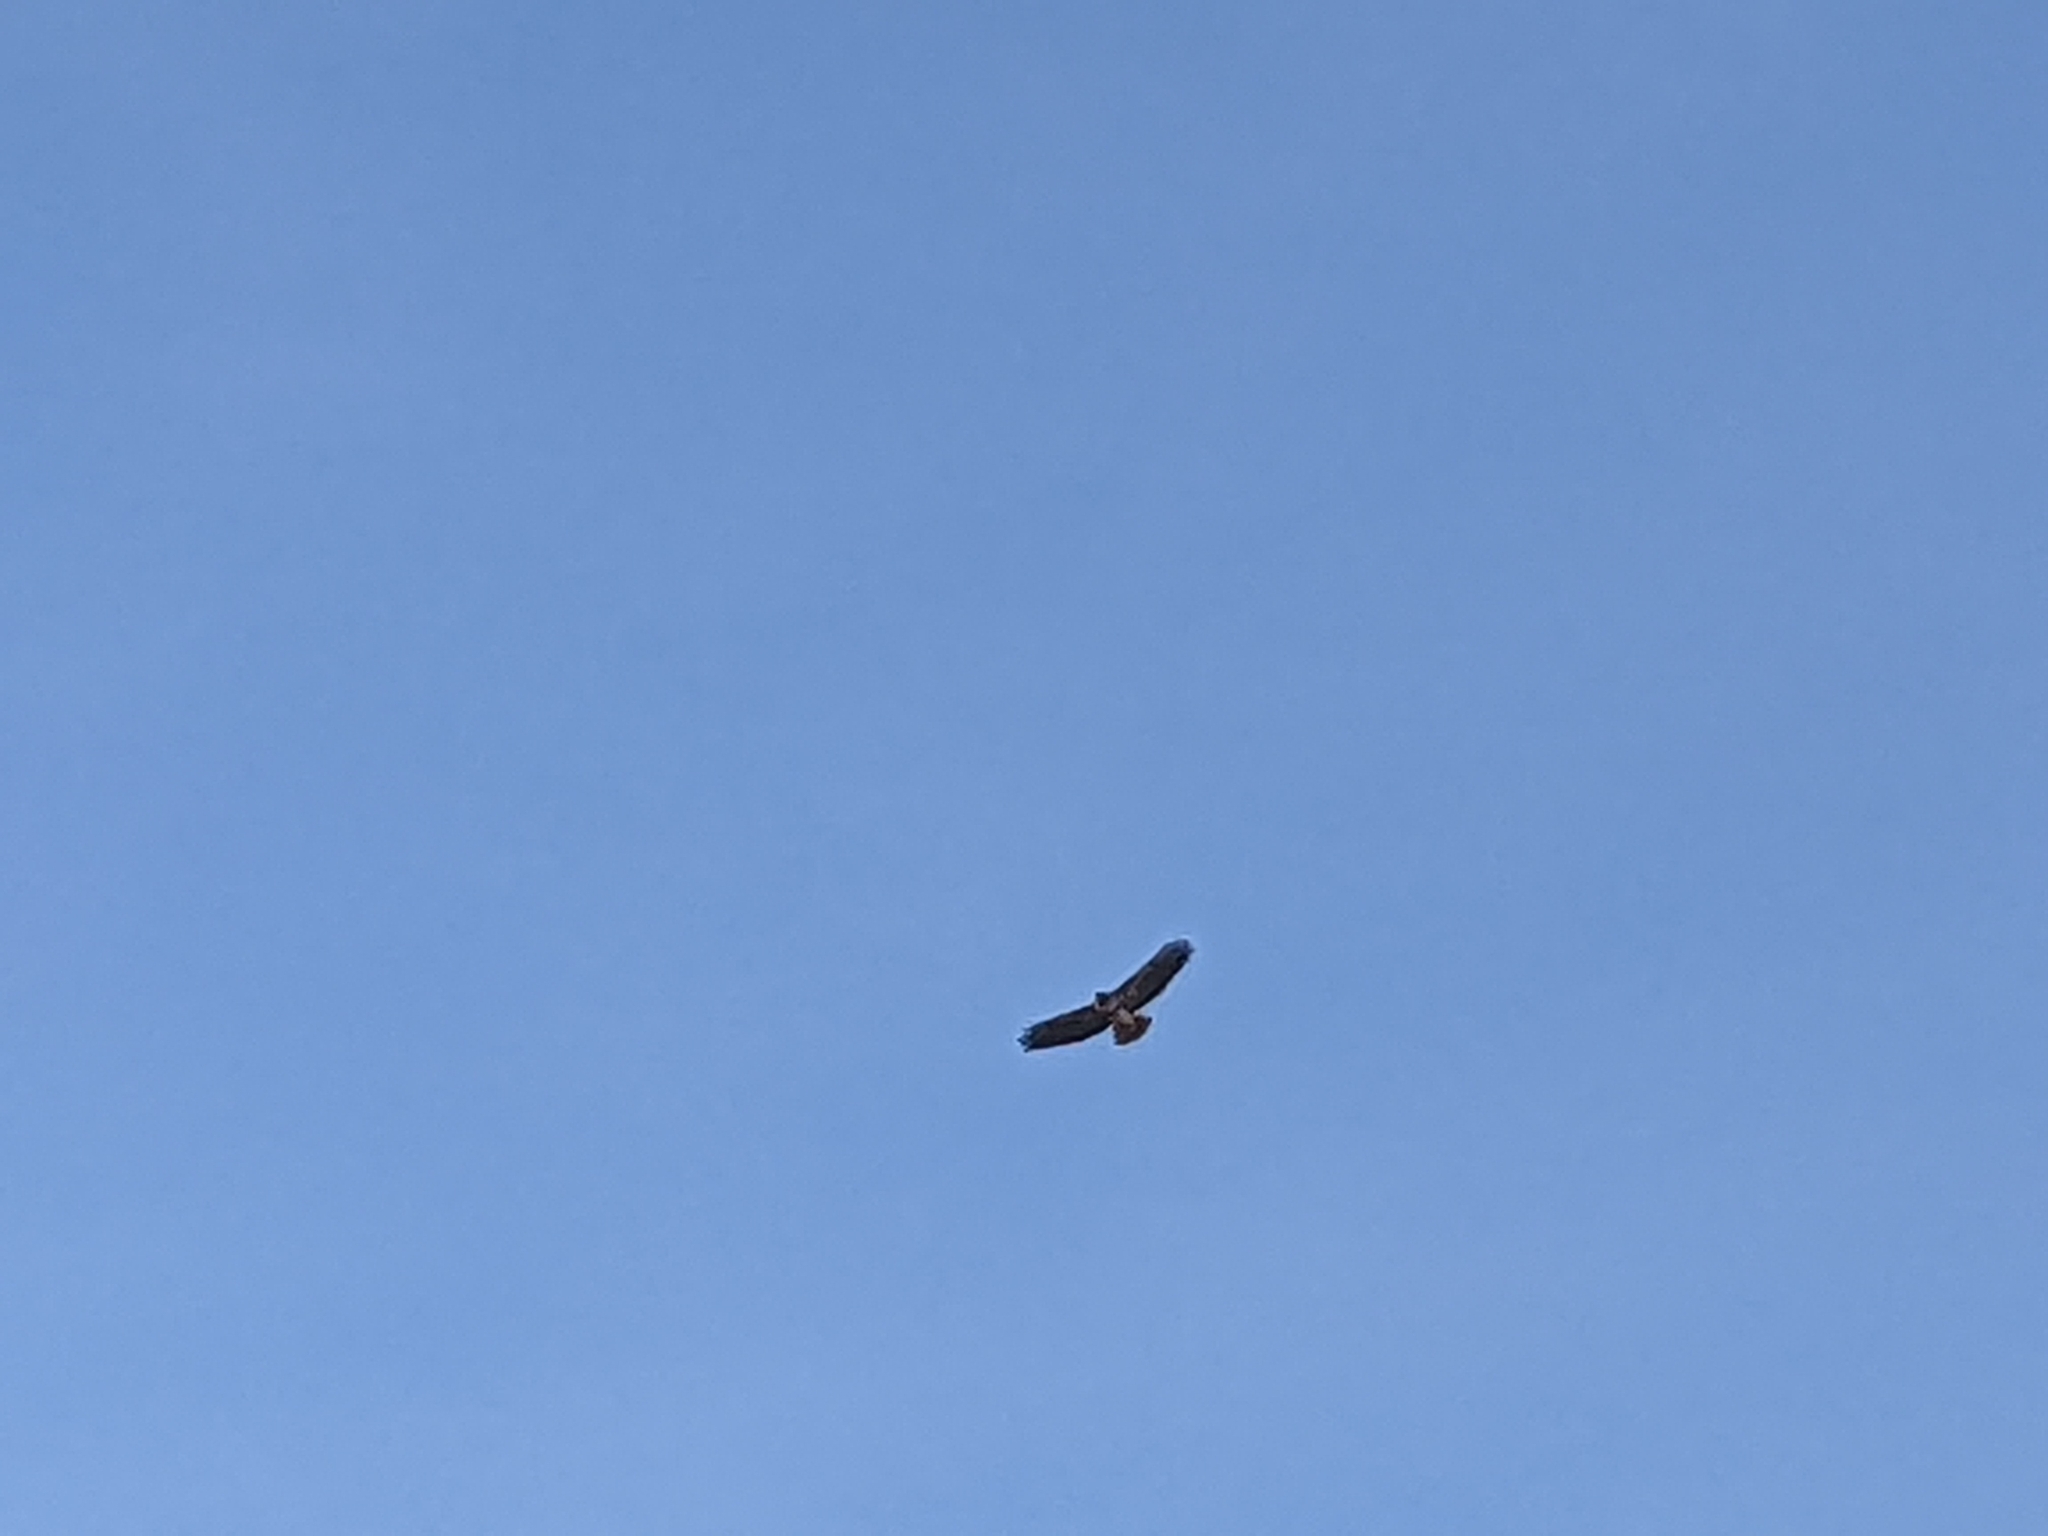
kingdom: Animalia
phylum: Chordata
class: Aves
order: Accipitriformes
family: Accipitridae
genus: Buteo
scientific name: Buteo jamaicensis
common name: Red-tailed hawk
